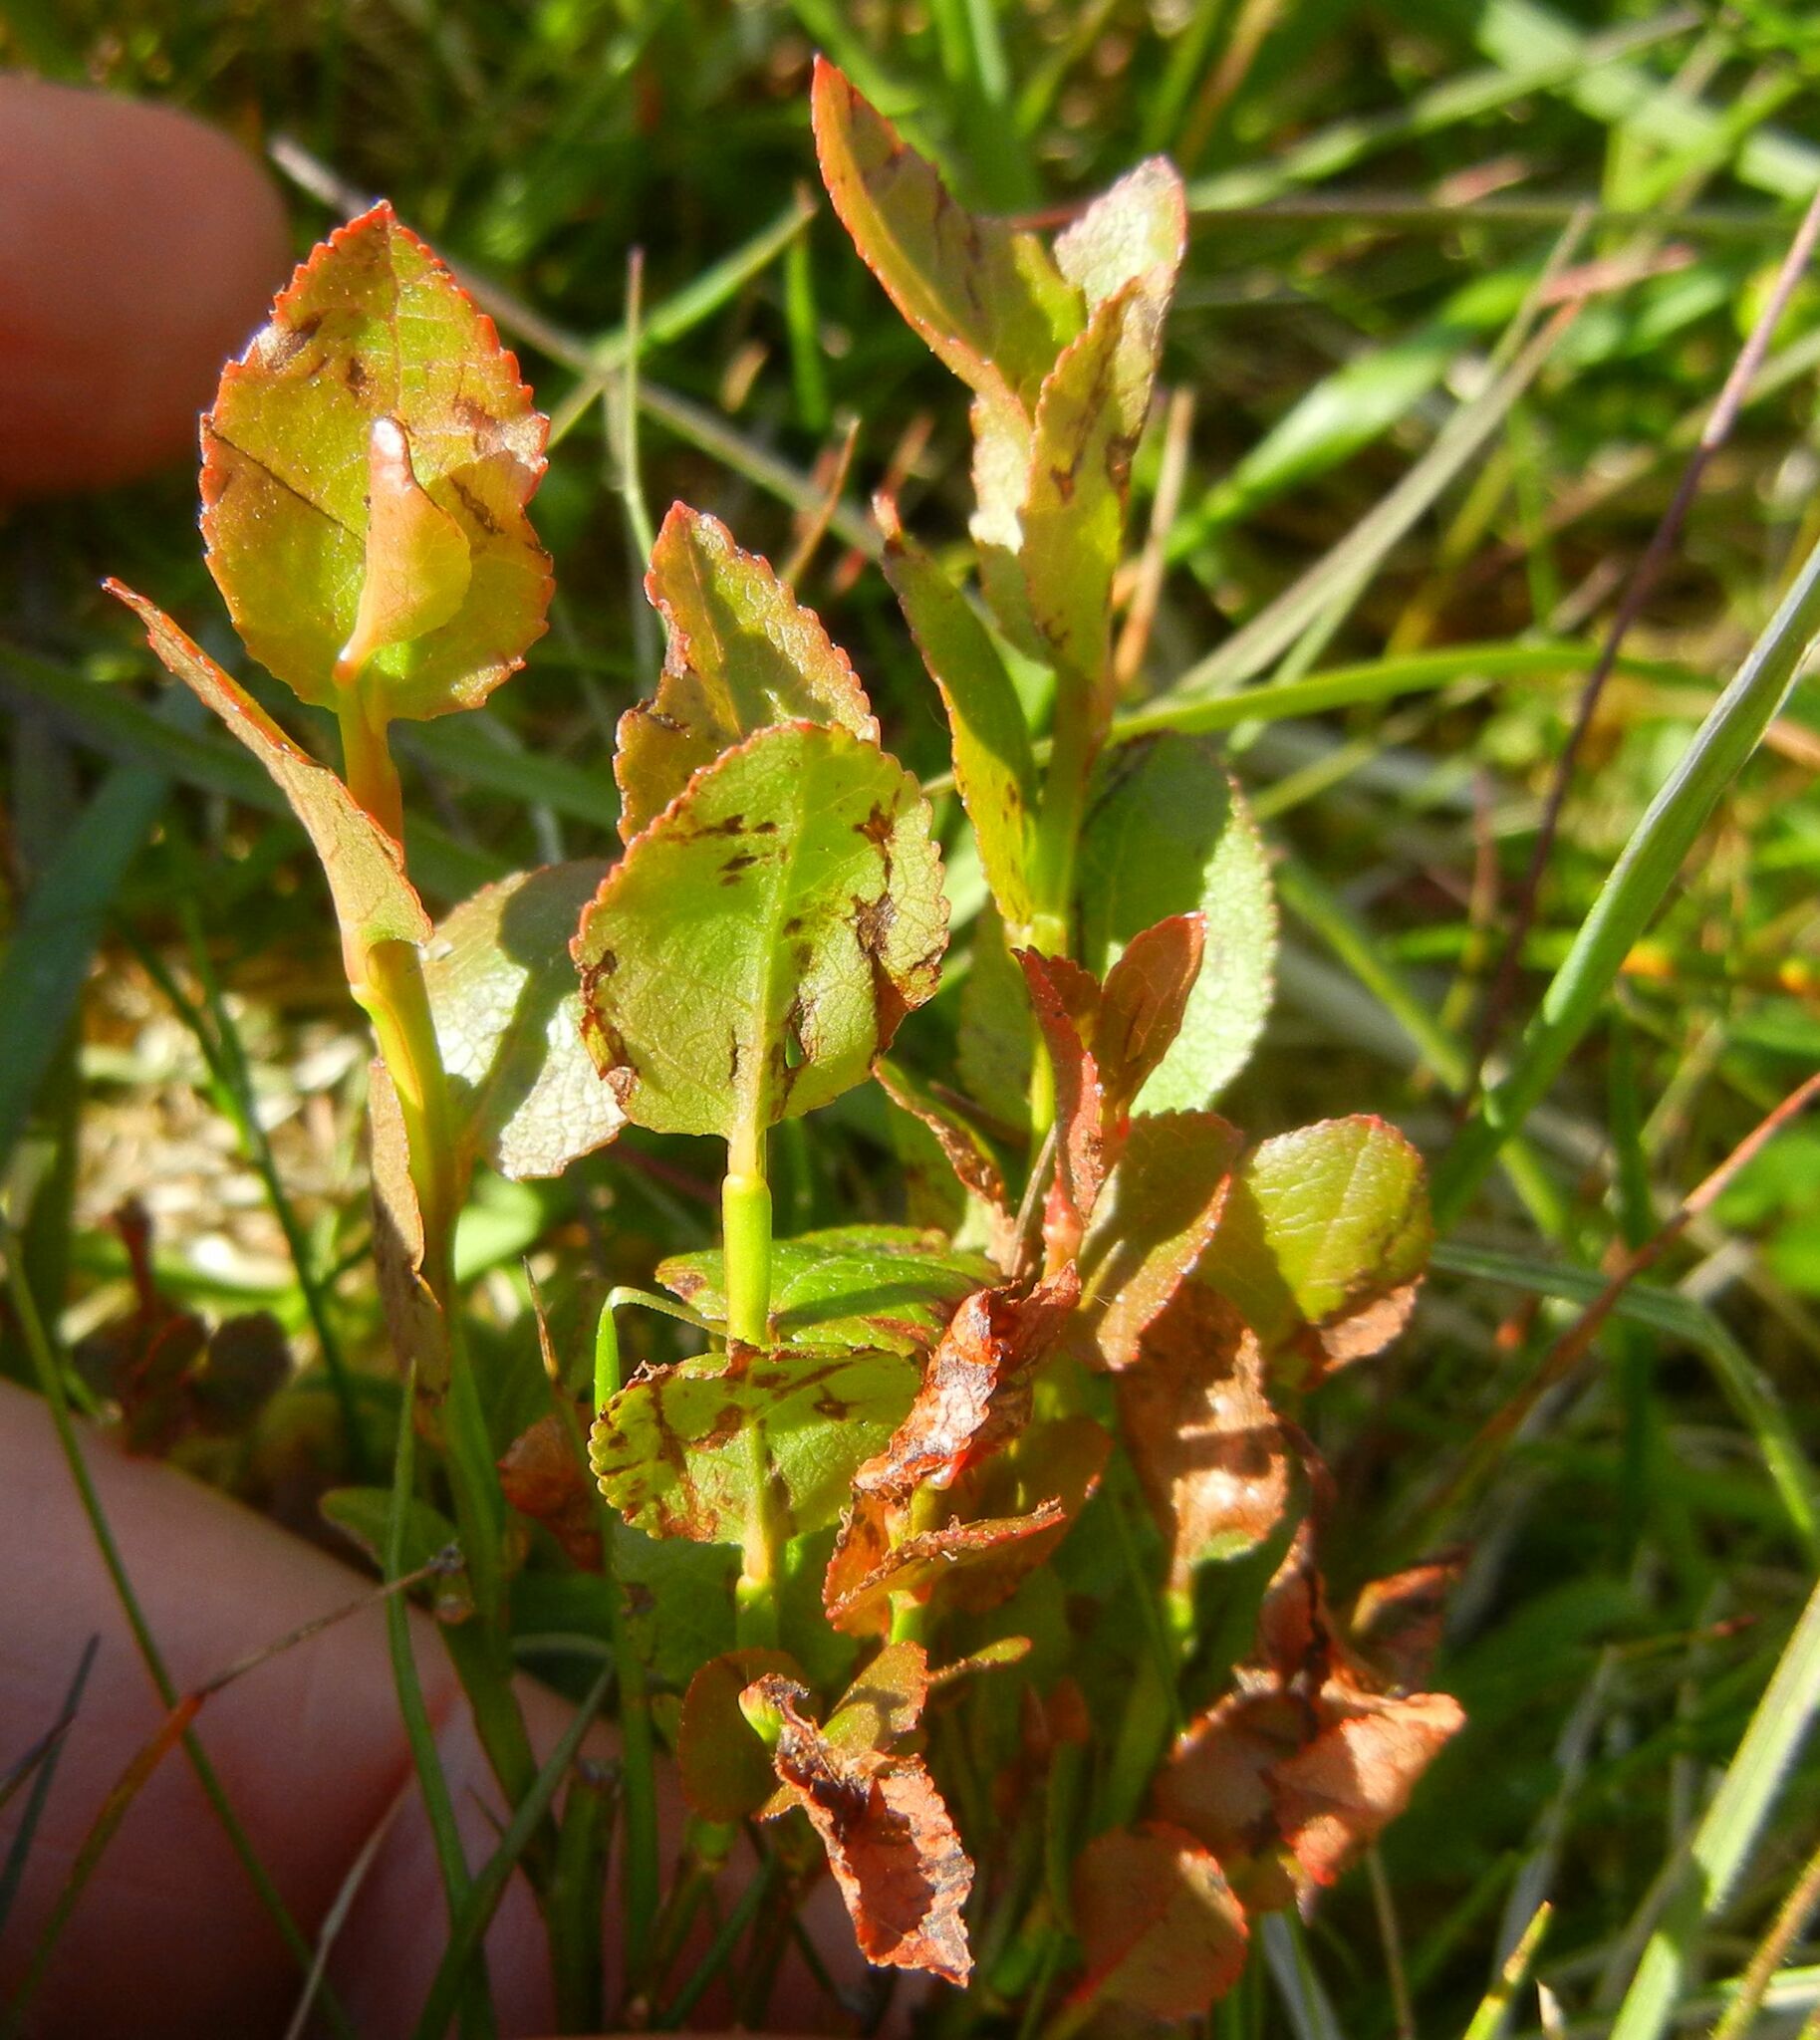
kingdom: Plantae
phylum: Tracheophyta
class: Magnoliopsida
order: Ericales
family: Ericaceae
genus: Vaccinium
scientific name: Vaccinium myrtillus
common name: Bilberry
